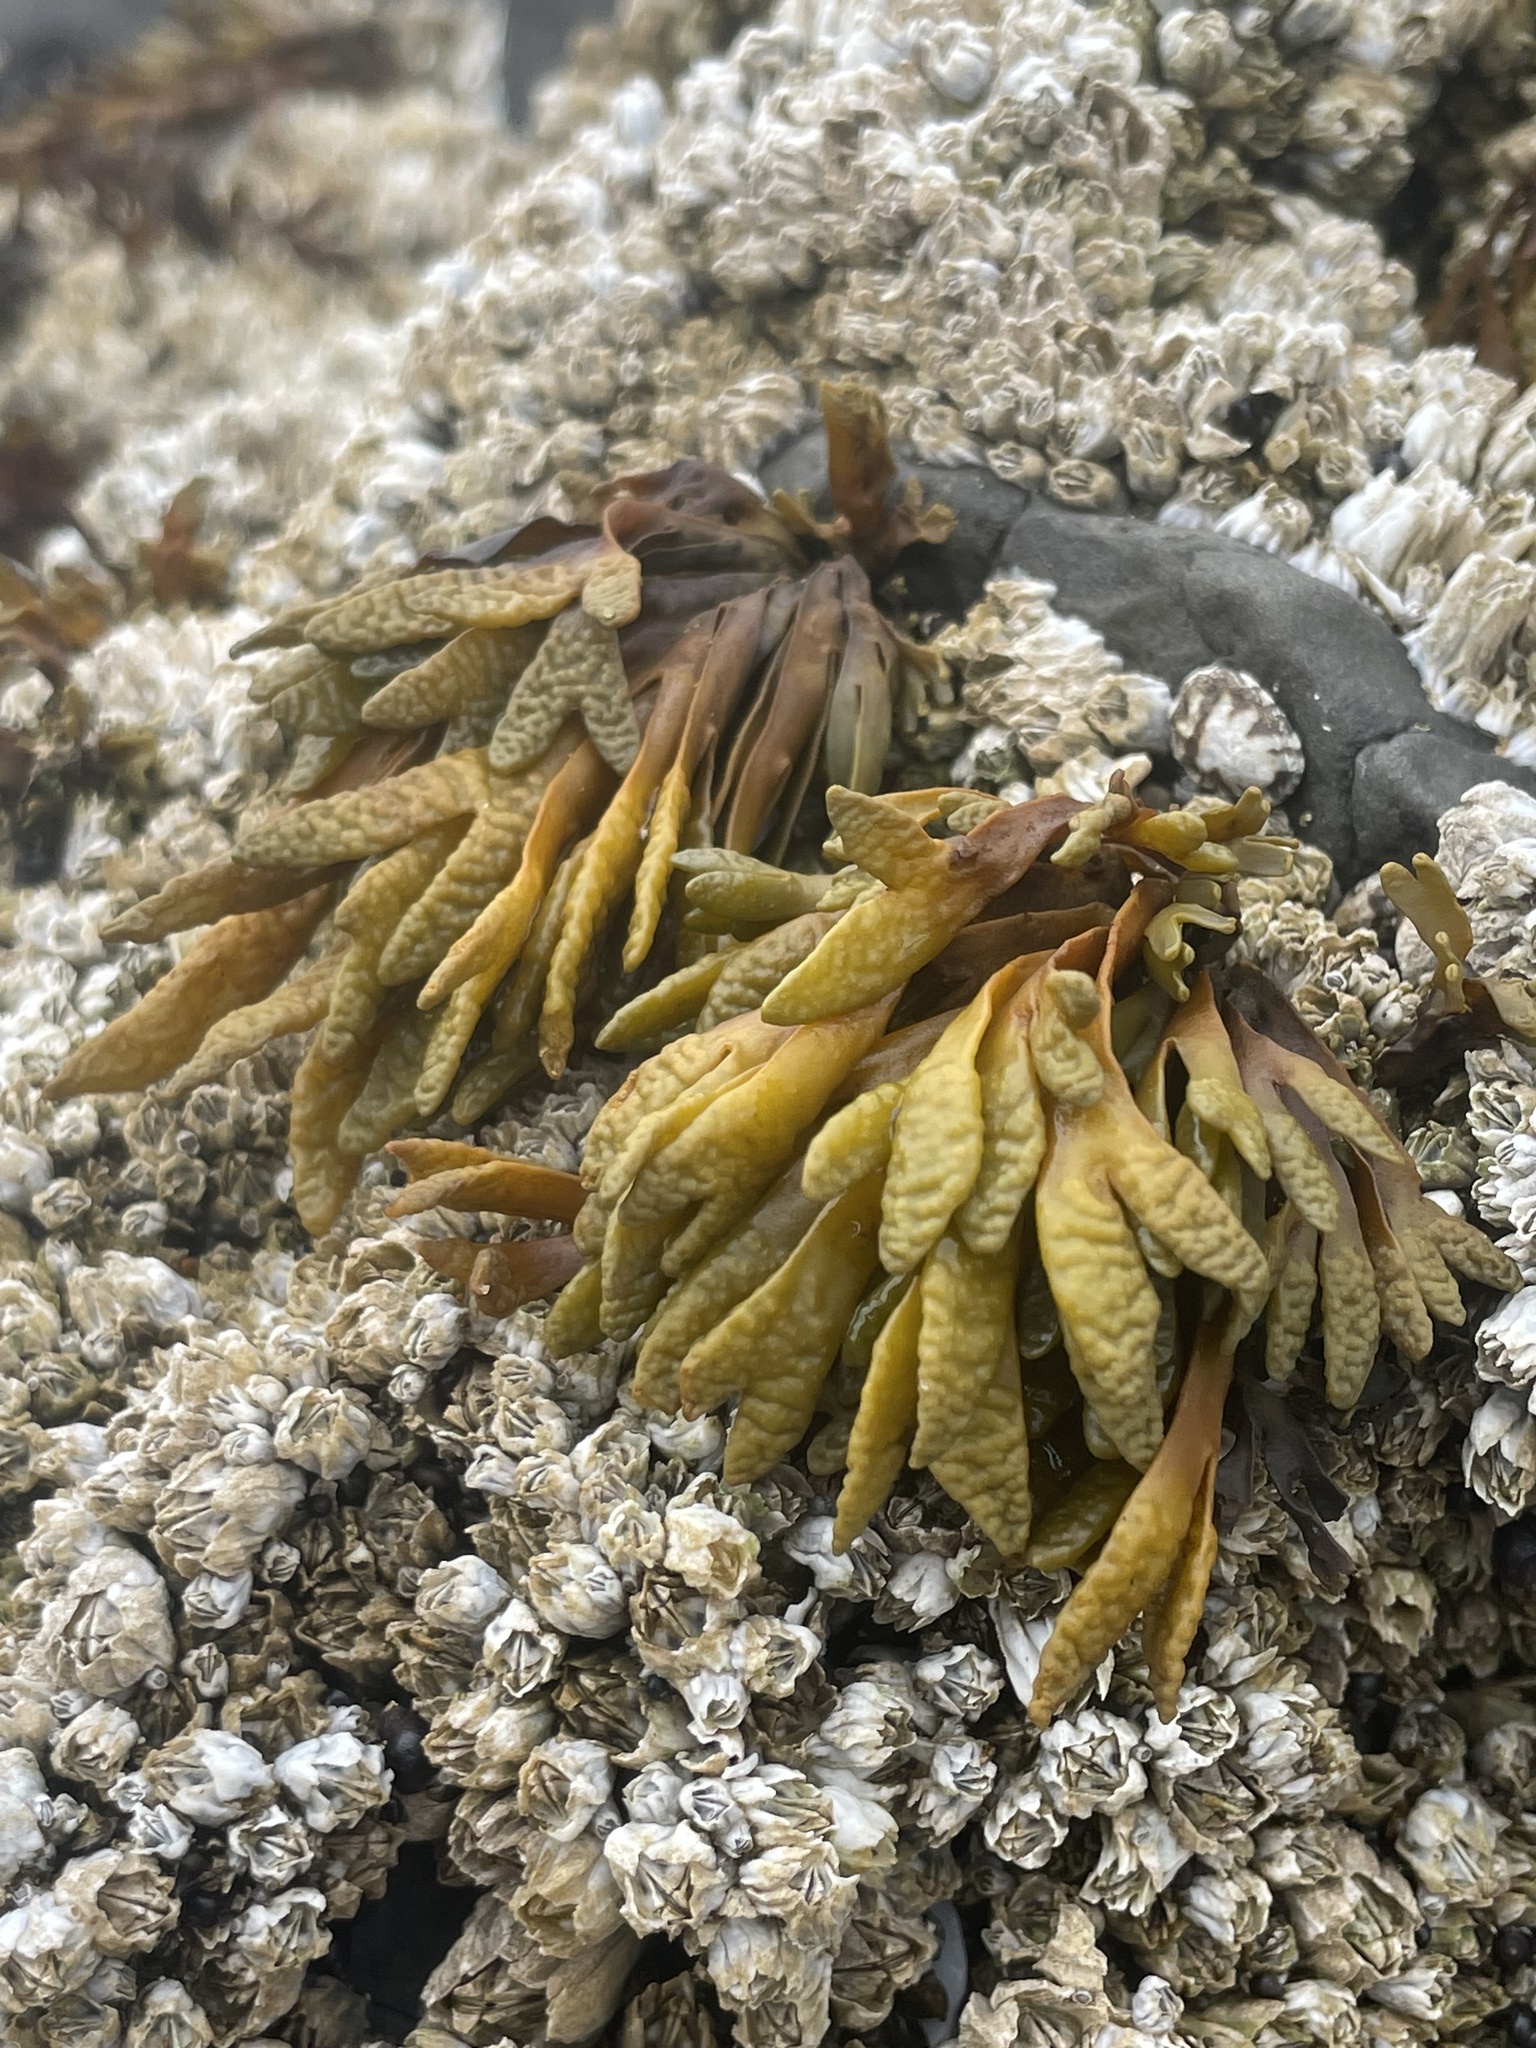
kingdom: Chromista
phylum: Ochrophyta
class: Phaeophyceae
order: Fucales
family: Fucaceae
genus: Pelvetiopsis
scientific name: Pelvetiopsis limitata
